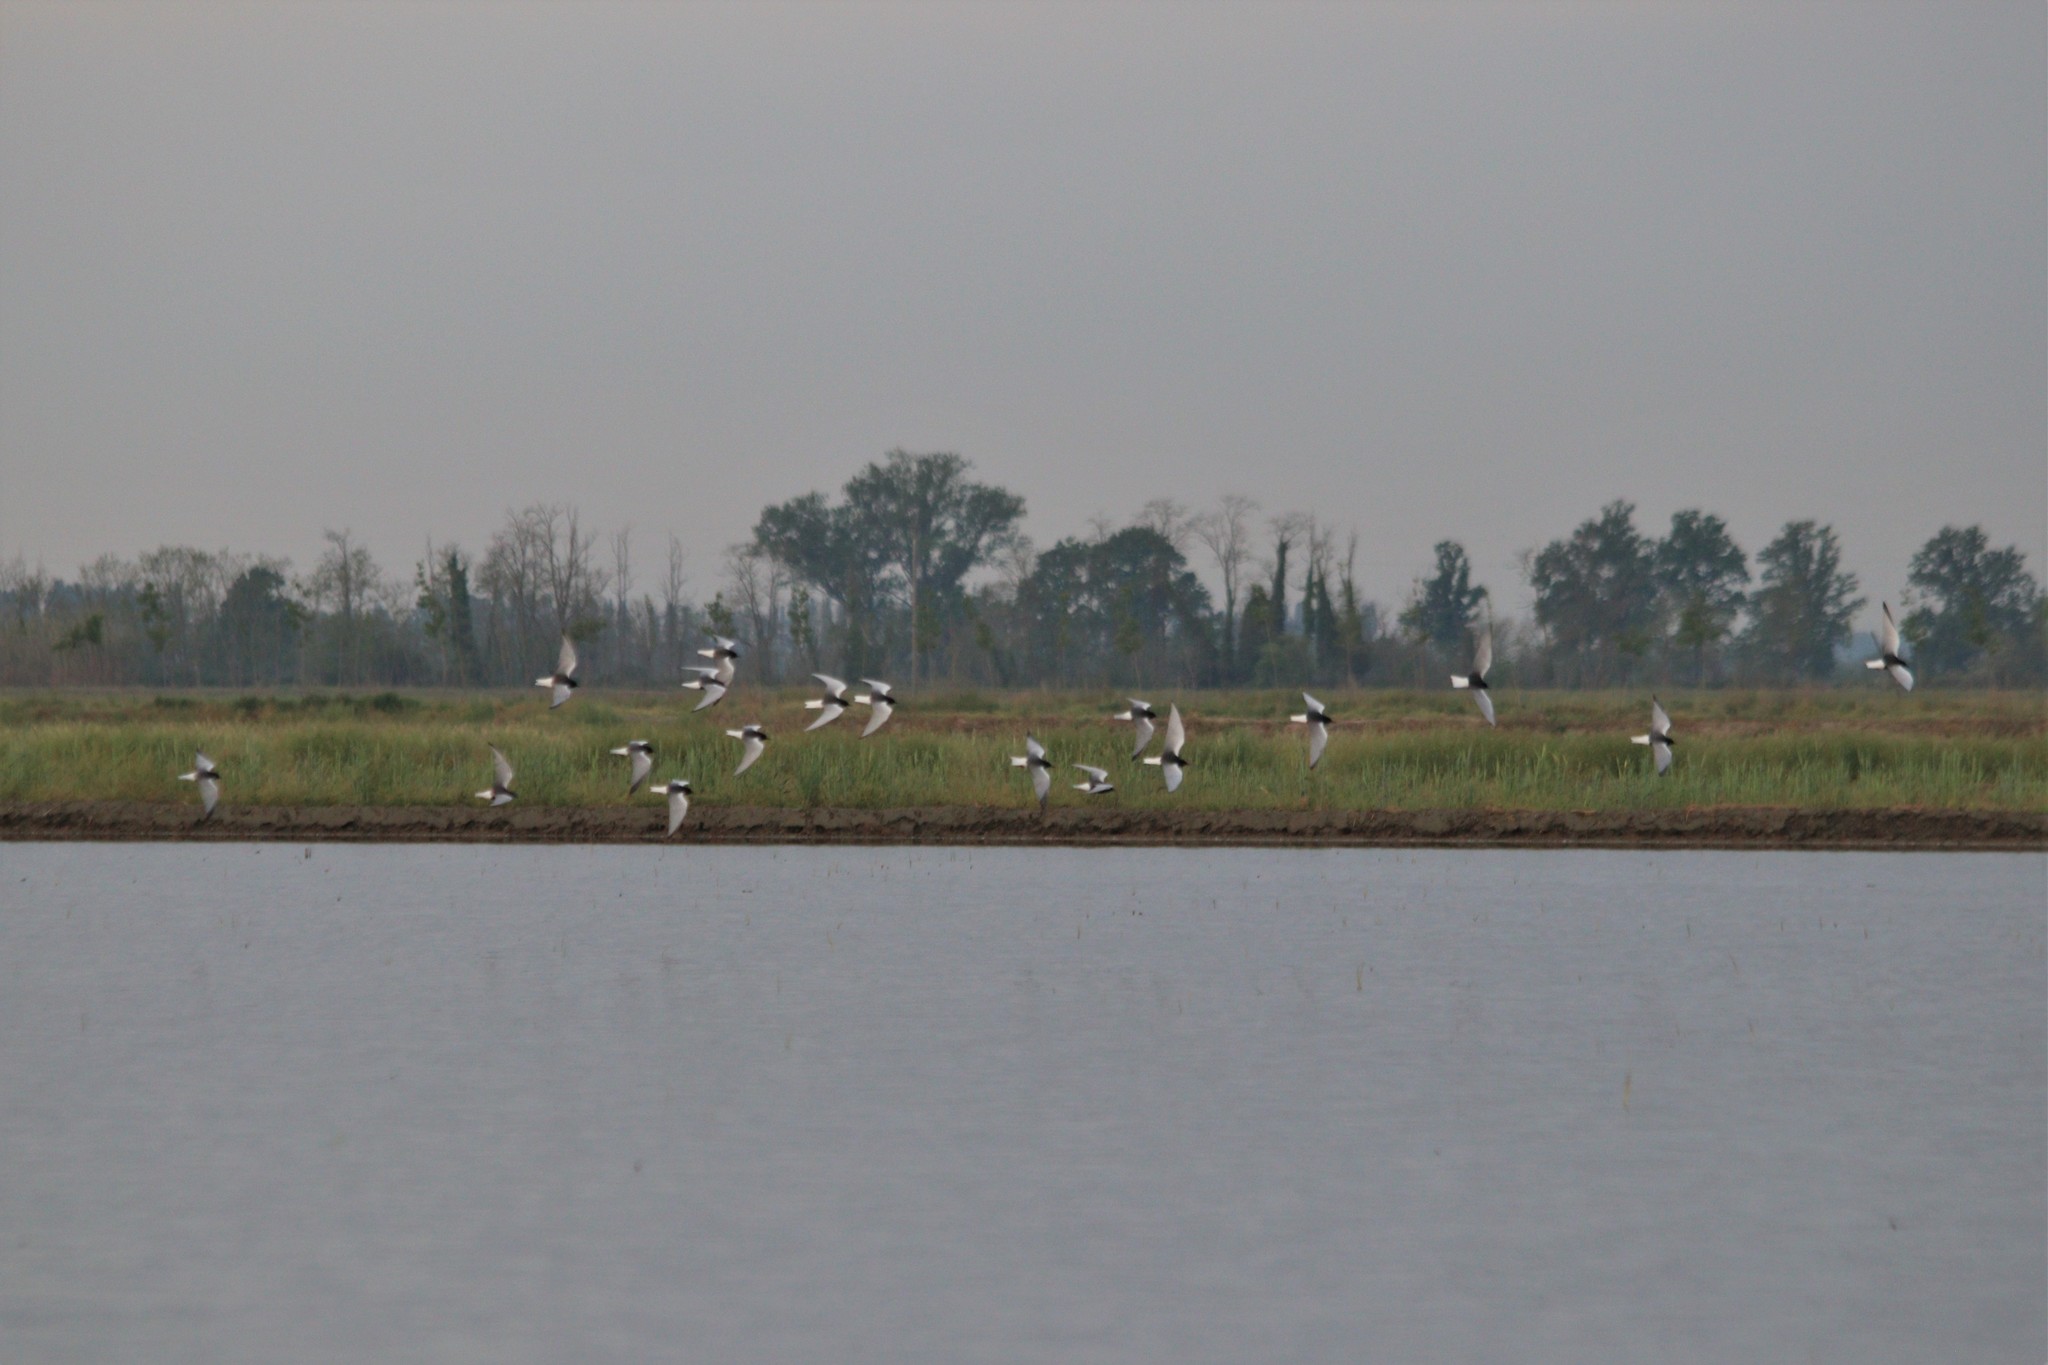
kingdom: Animalia
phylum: Chordata
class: Aves
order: Charadriiformes
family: Laridae
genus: Chlidonias
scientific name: Chlidonias leucopterus
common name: White-winged tern
